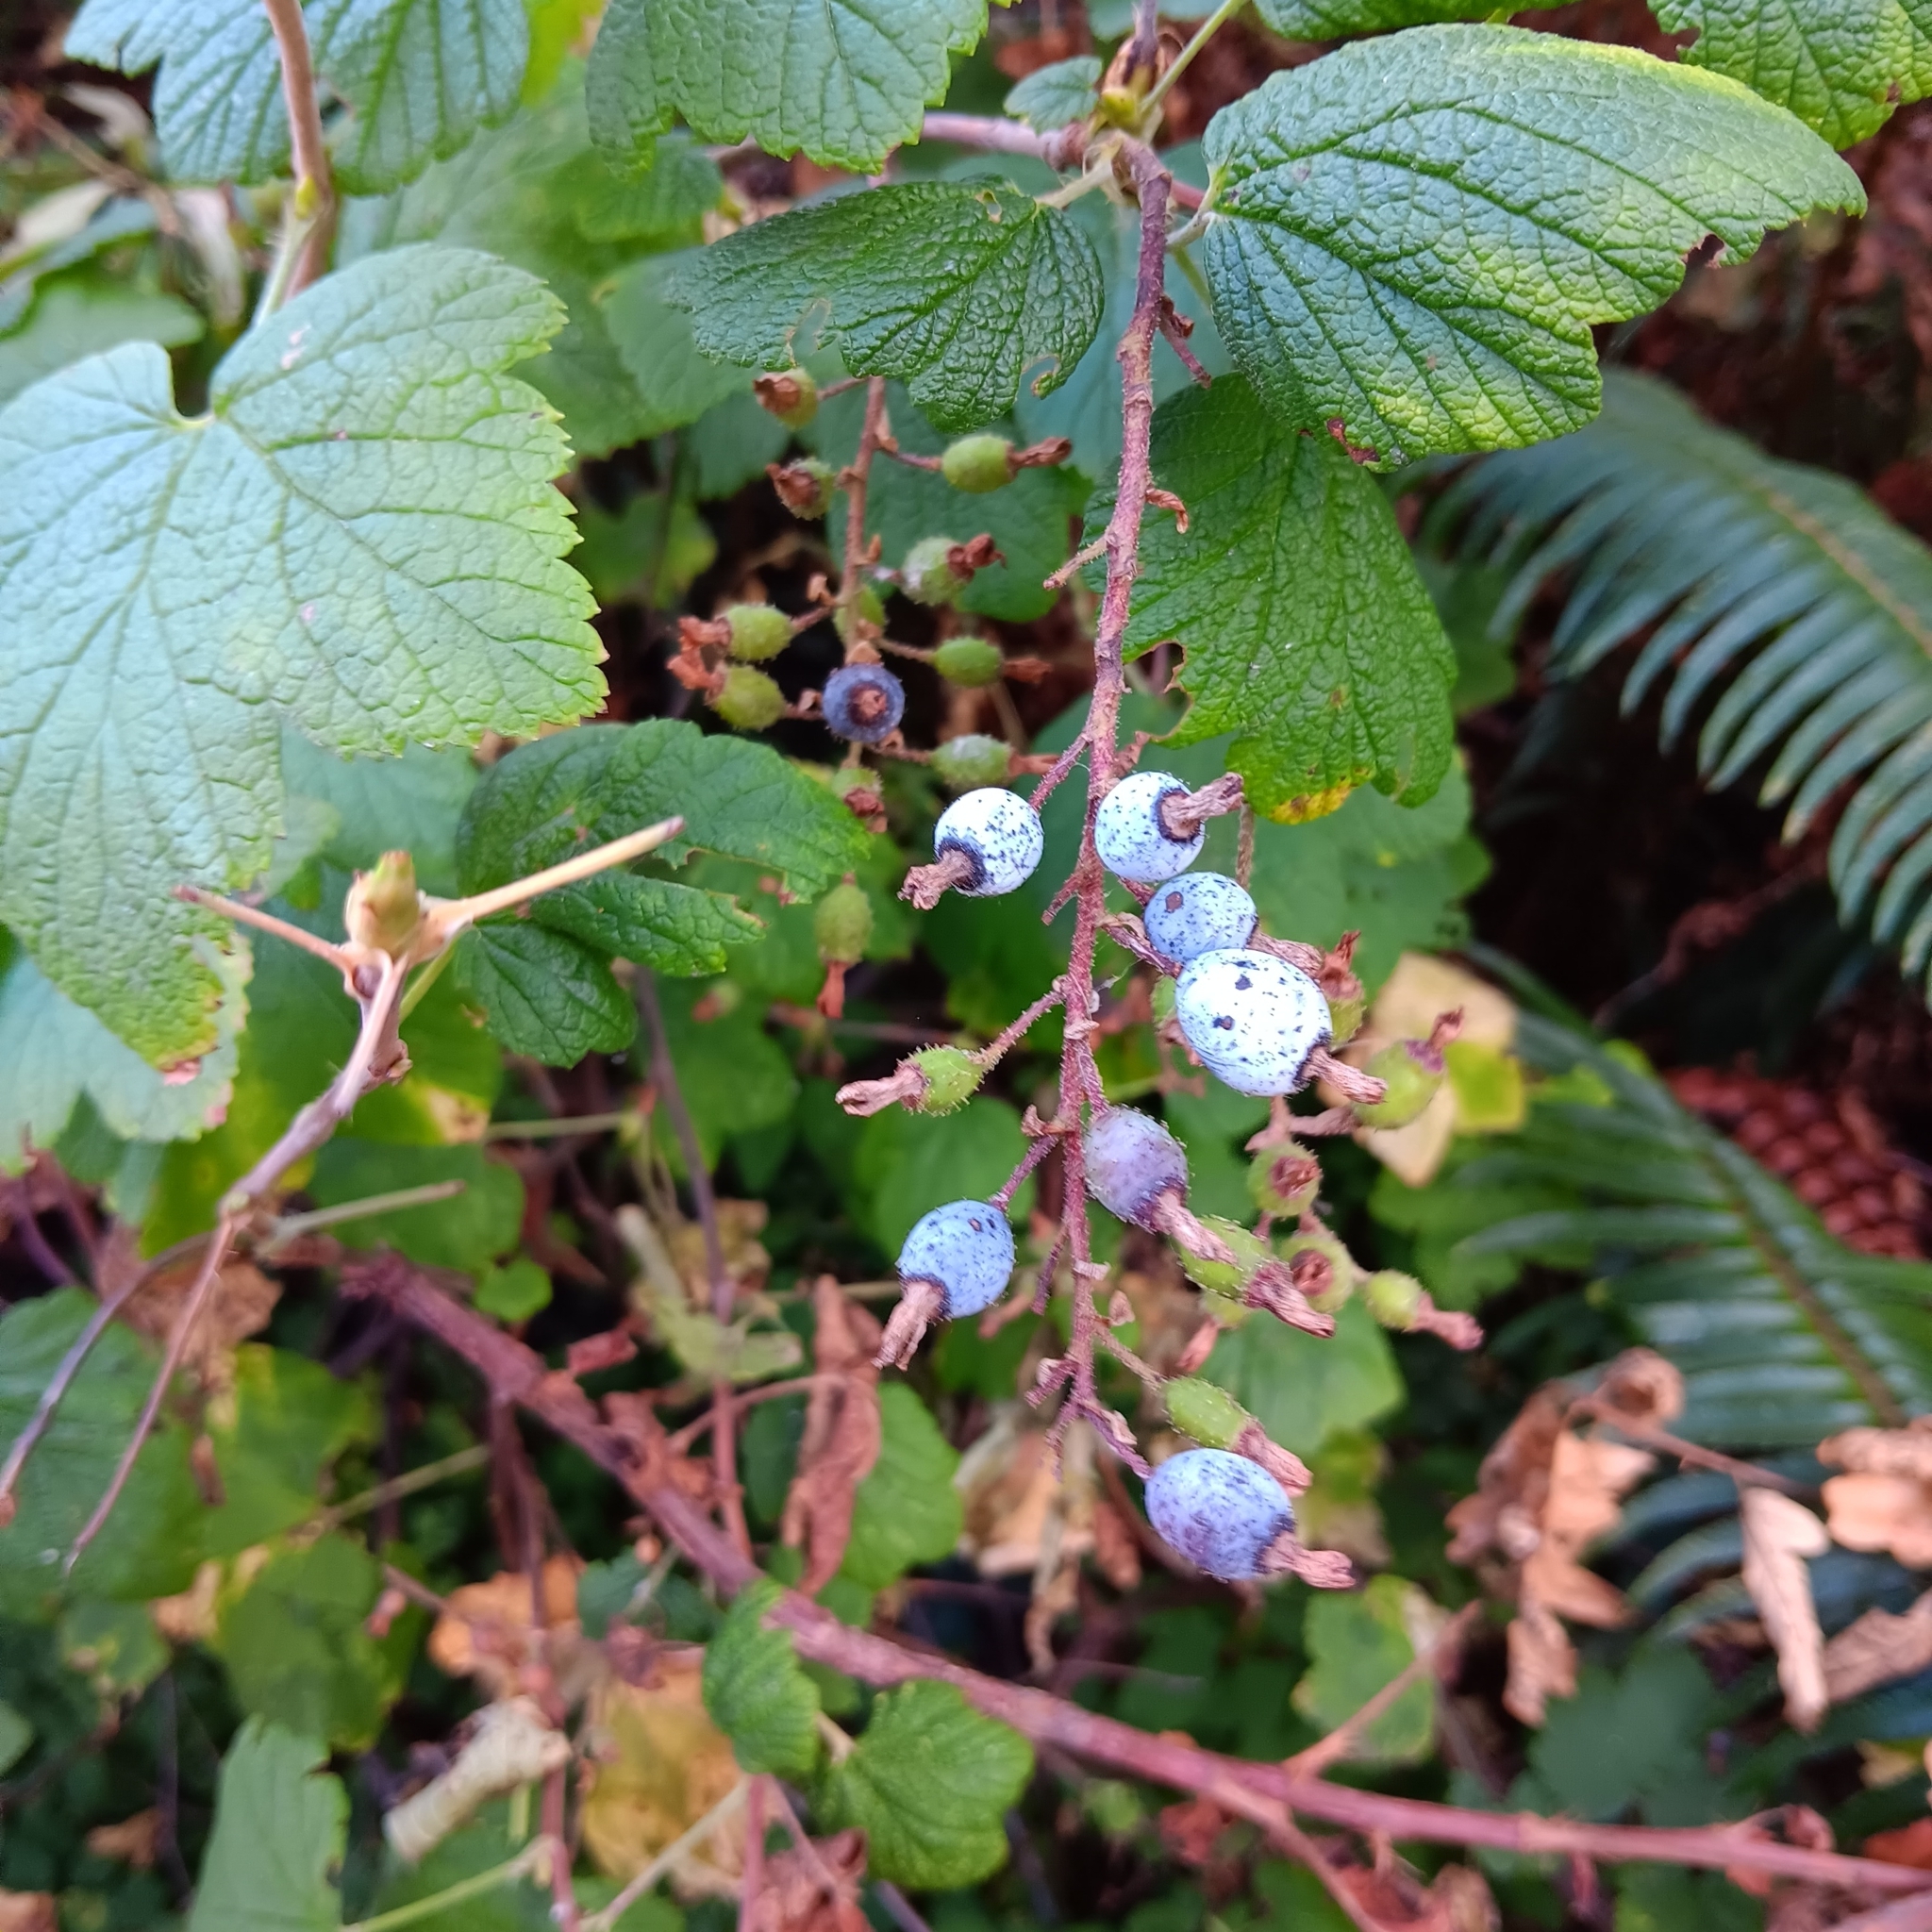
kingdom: Plantae
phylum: Tracheophyta
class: Magnoliopsida
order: Saxifragales
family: Grossulariaceae
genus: Ribes
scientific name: Ribes sanguineum
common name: Flowering currant
